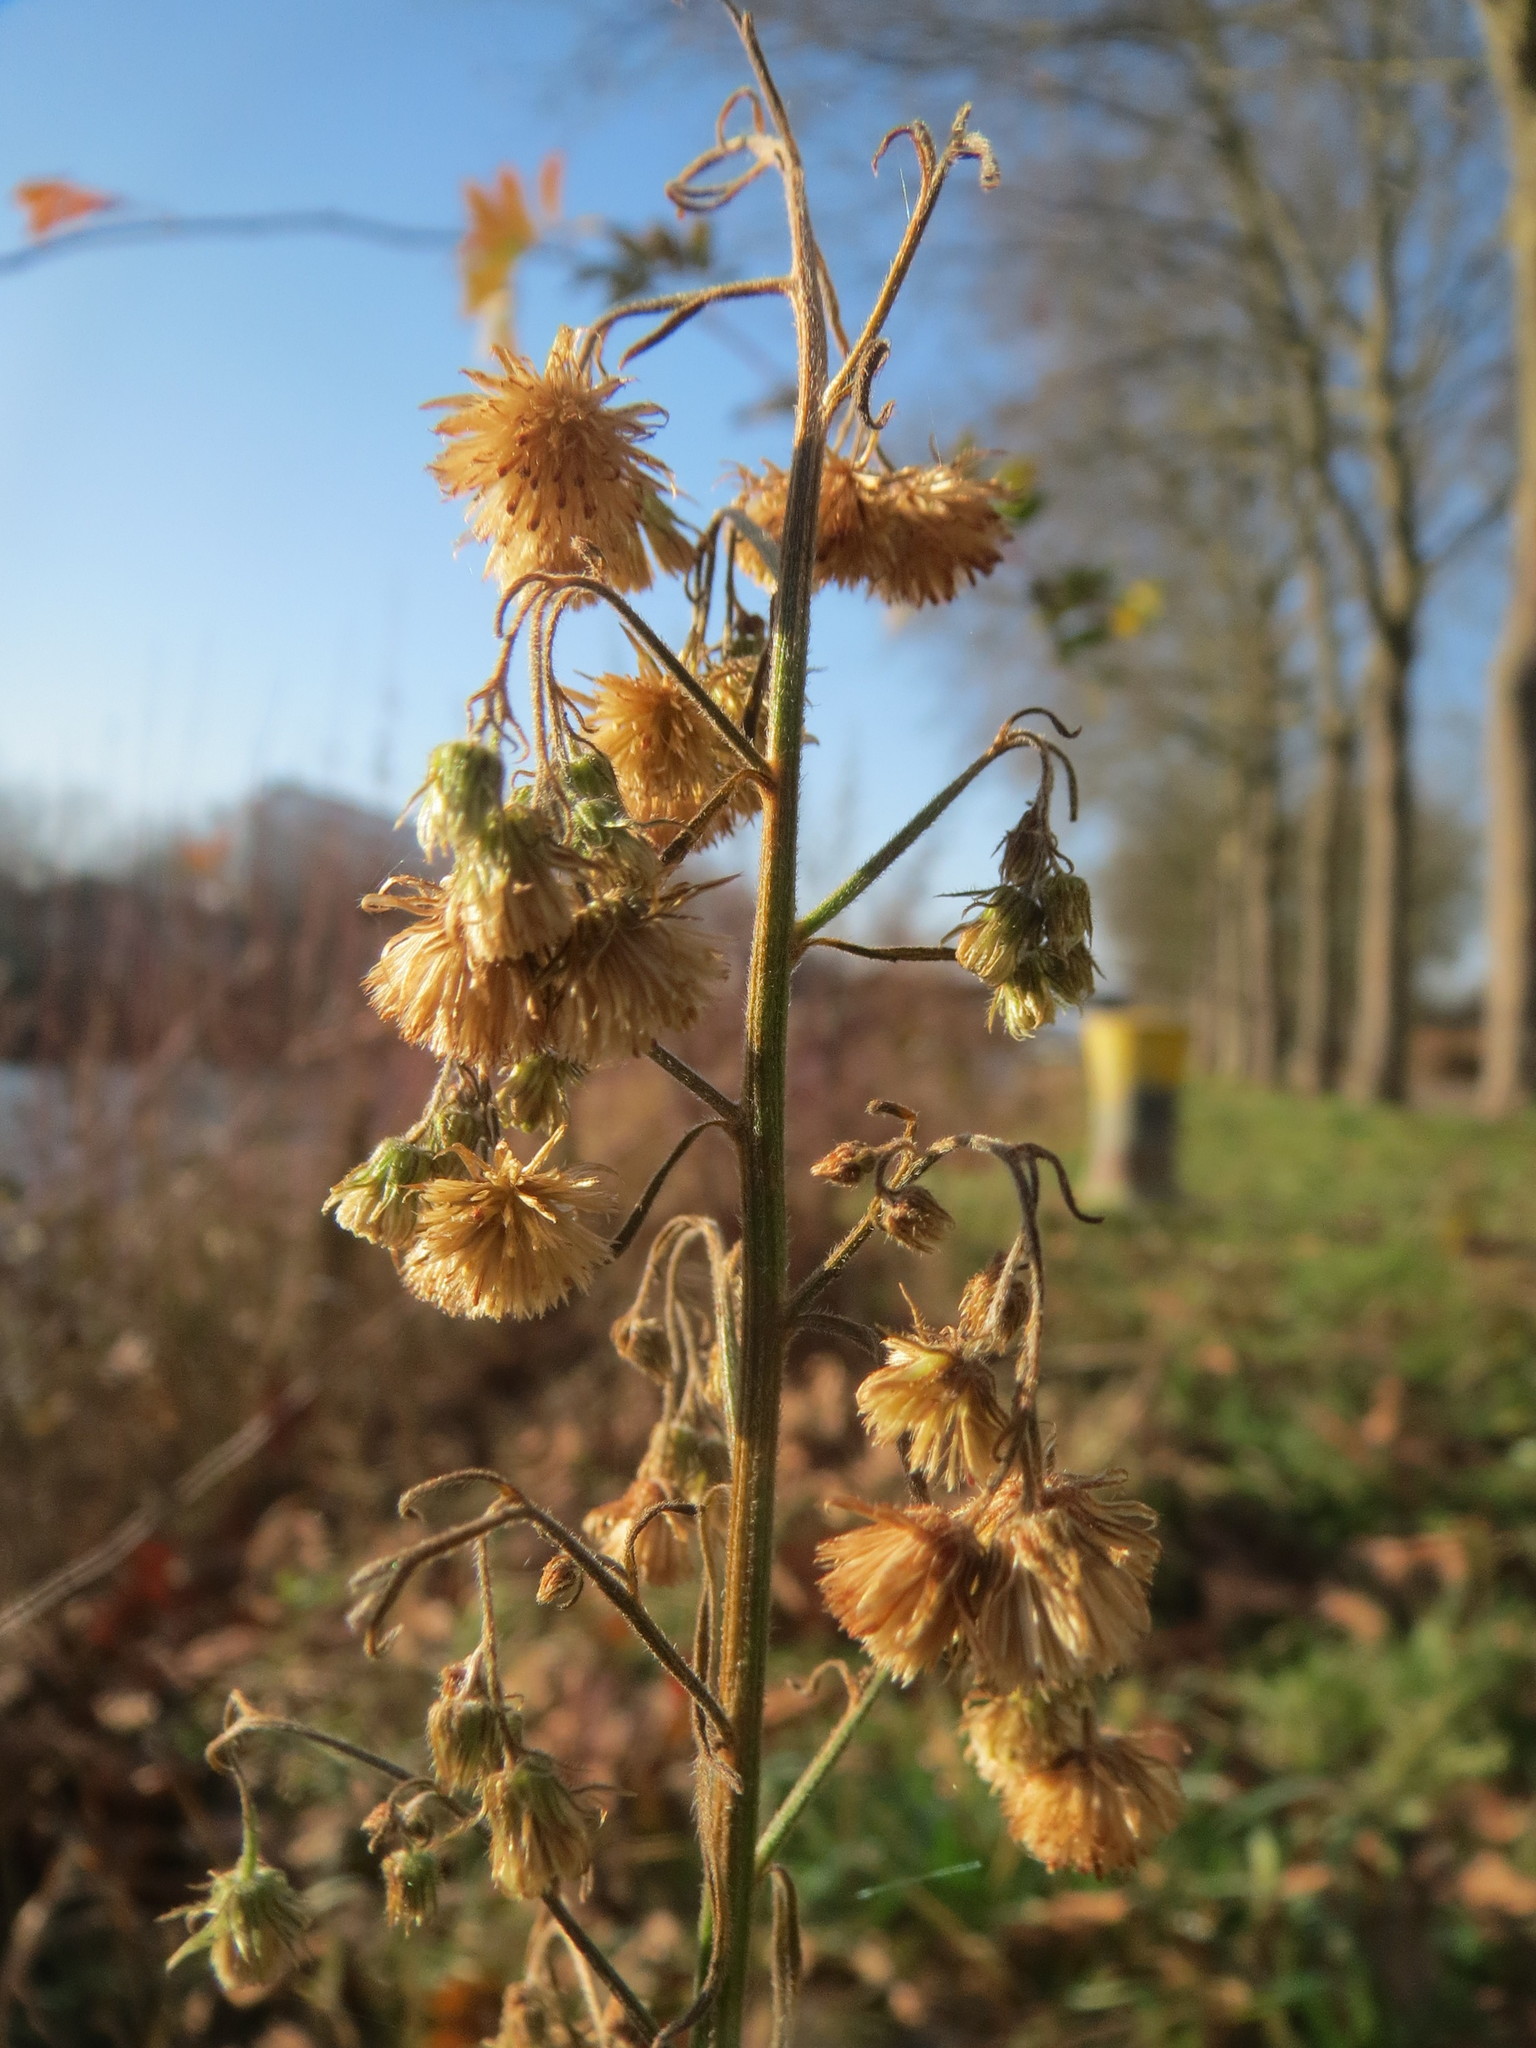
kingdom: Plantae
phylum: Tracheophyta
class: Magnoliopsida
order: Asterales
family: Asteraceae
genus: Erigeron
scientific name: Erigeron canadensis
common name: Canadian fleabane
